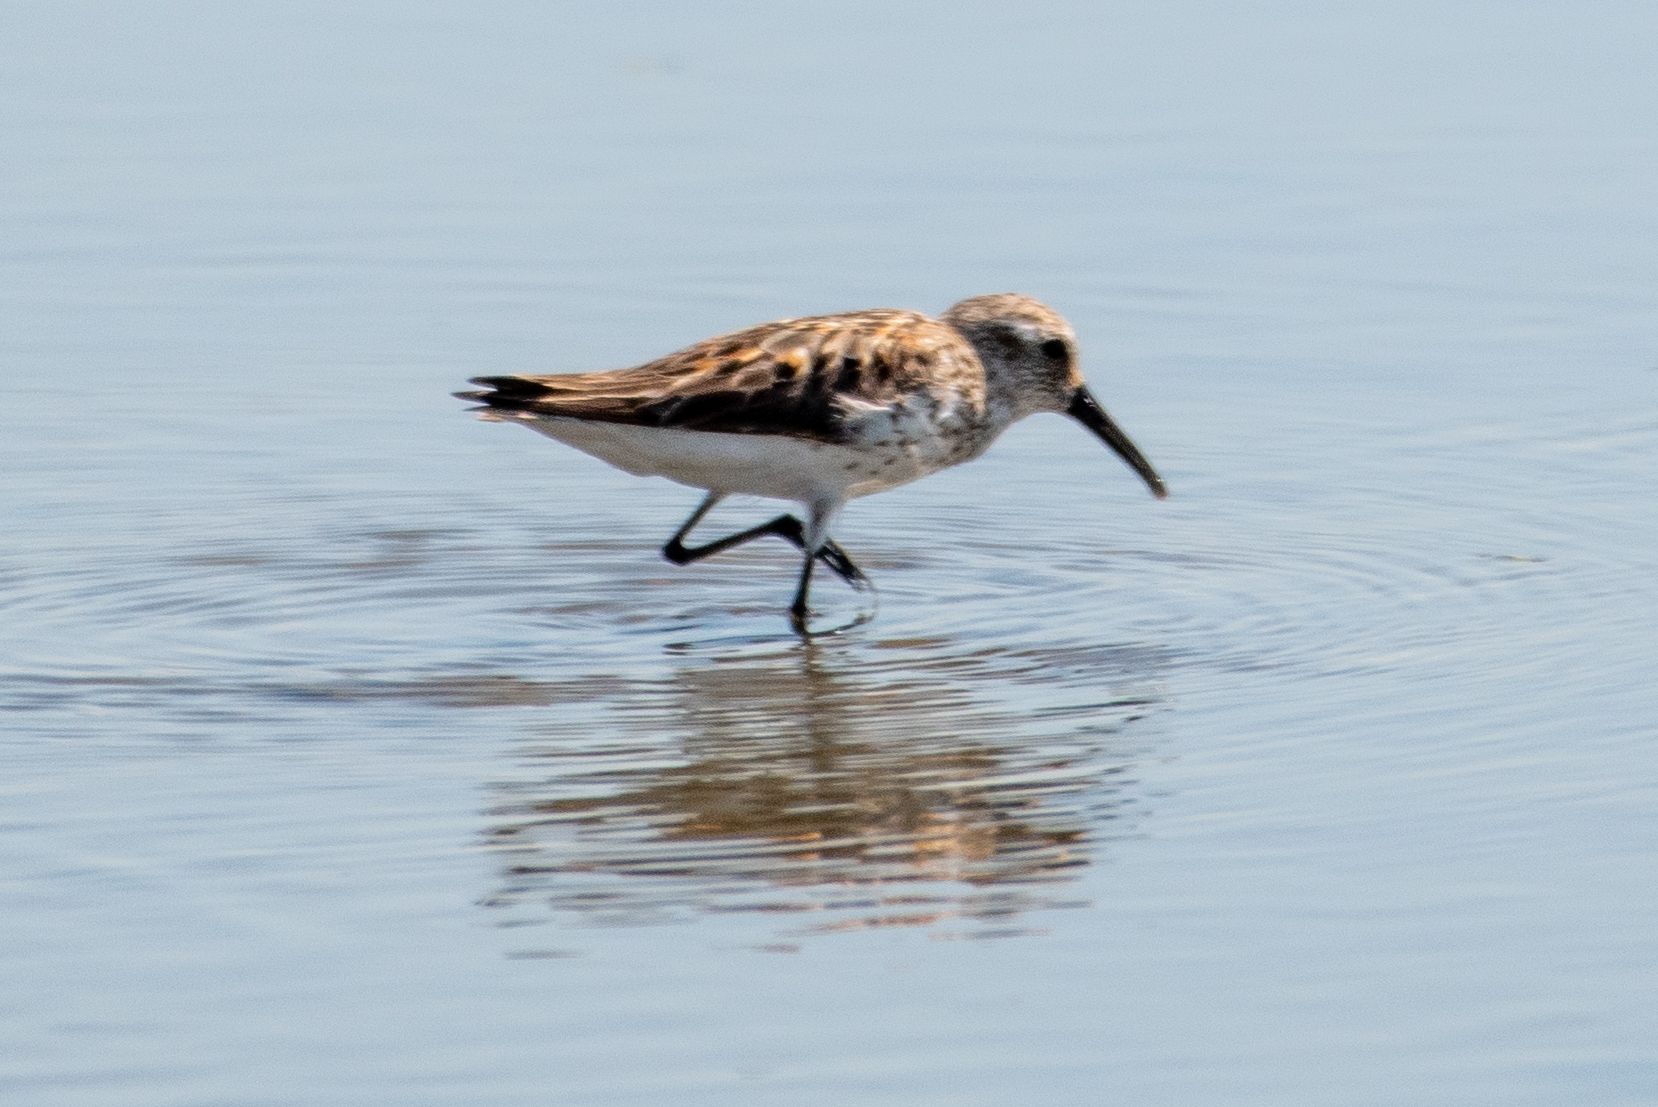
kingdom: Animalia
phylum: Chordata
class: Aves
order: Charadriiformes
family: Scolopacidae
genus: Calidris
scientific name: Calidris mauri
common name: Western sandpiper
